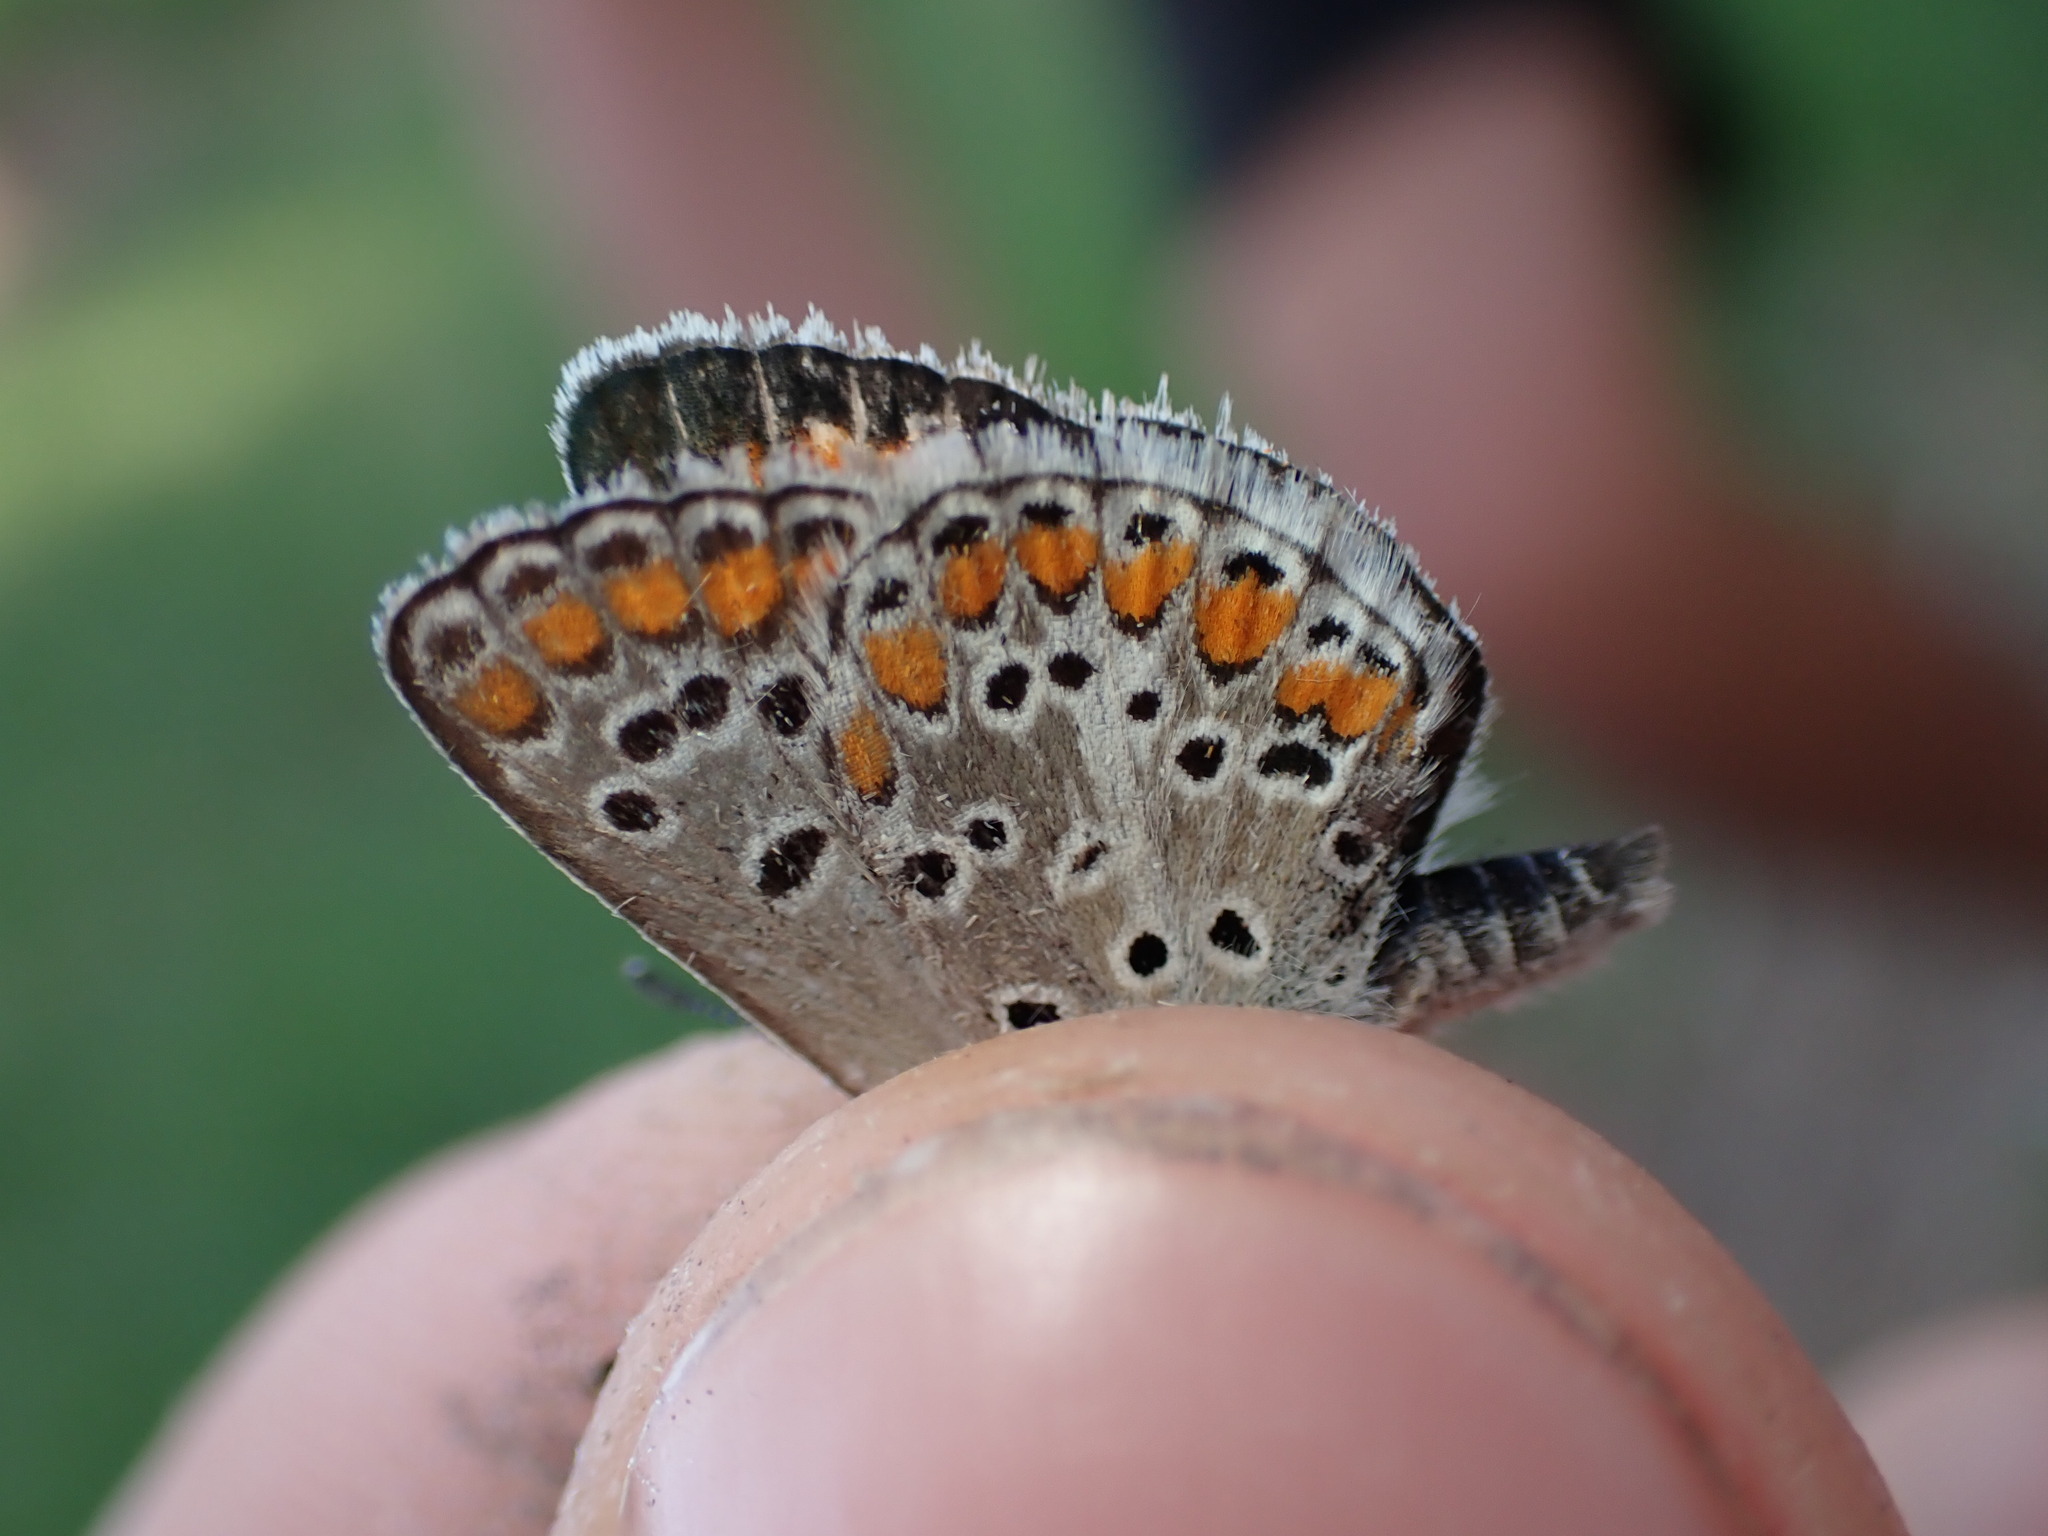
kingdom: Animalia
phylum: Arthropoda
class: Insecta
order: Lepidoptera
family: Lycaenidae
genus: Aricia
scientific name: Aricia agestis
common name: Brown argus
